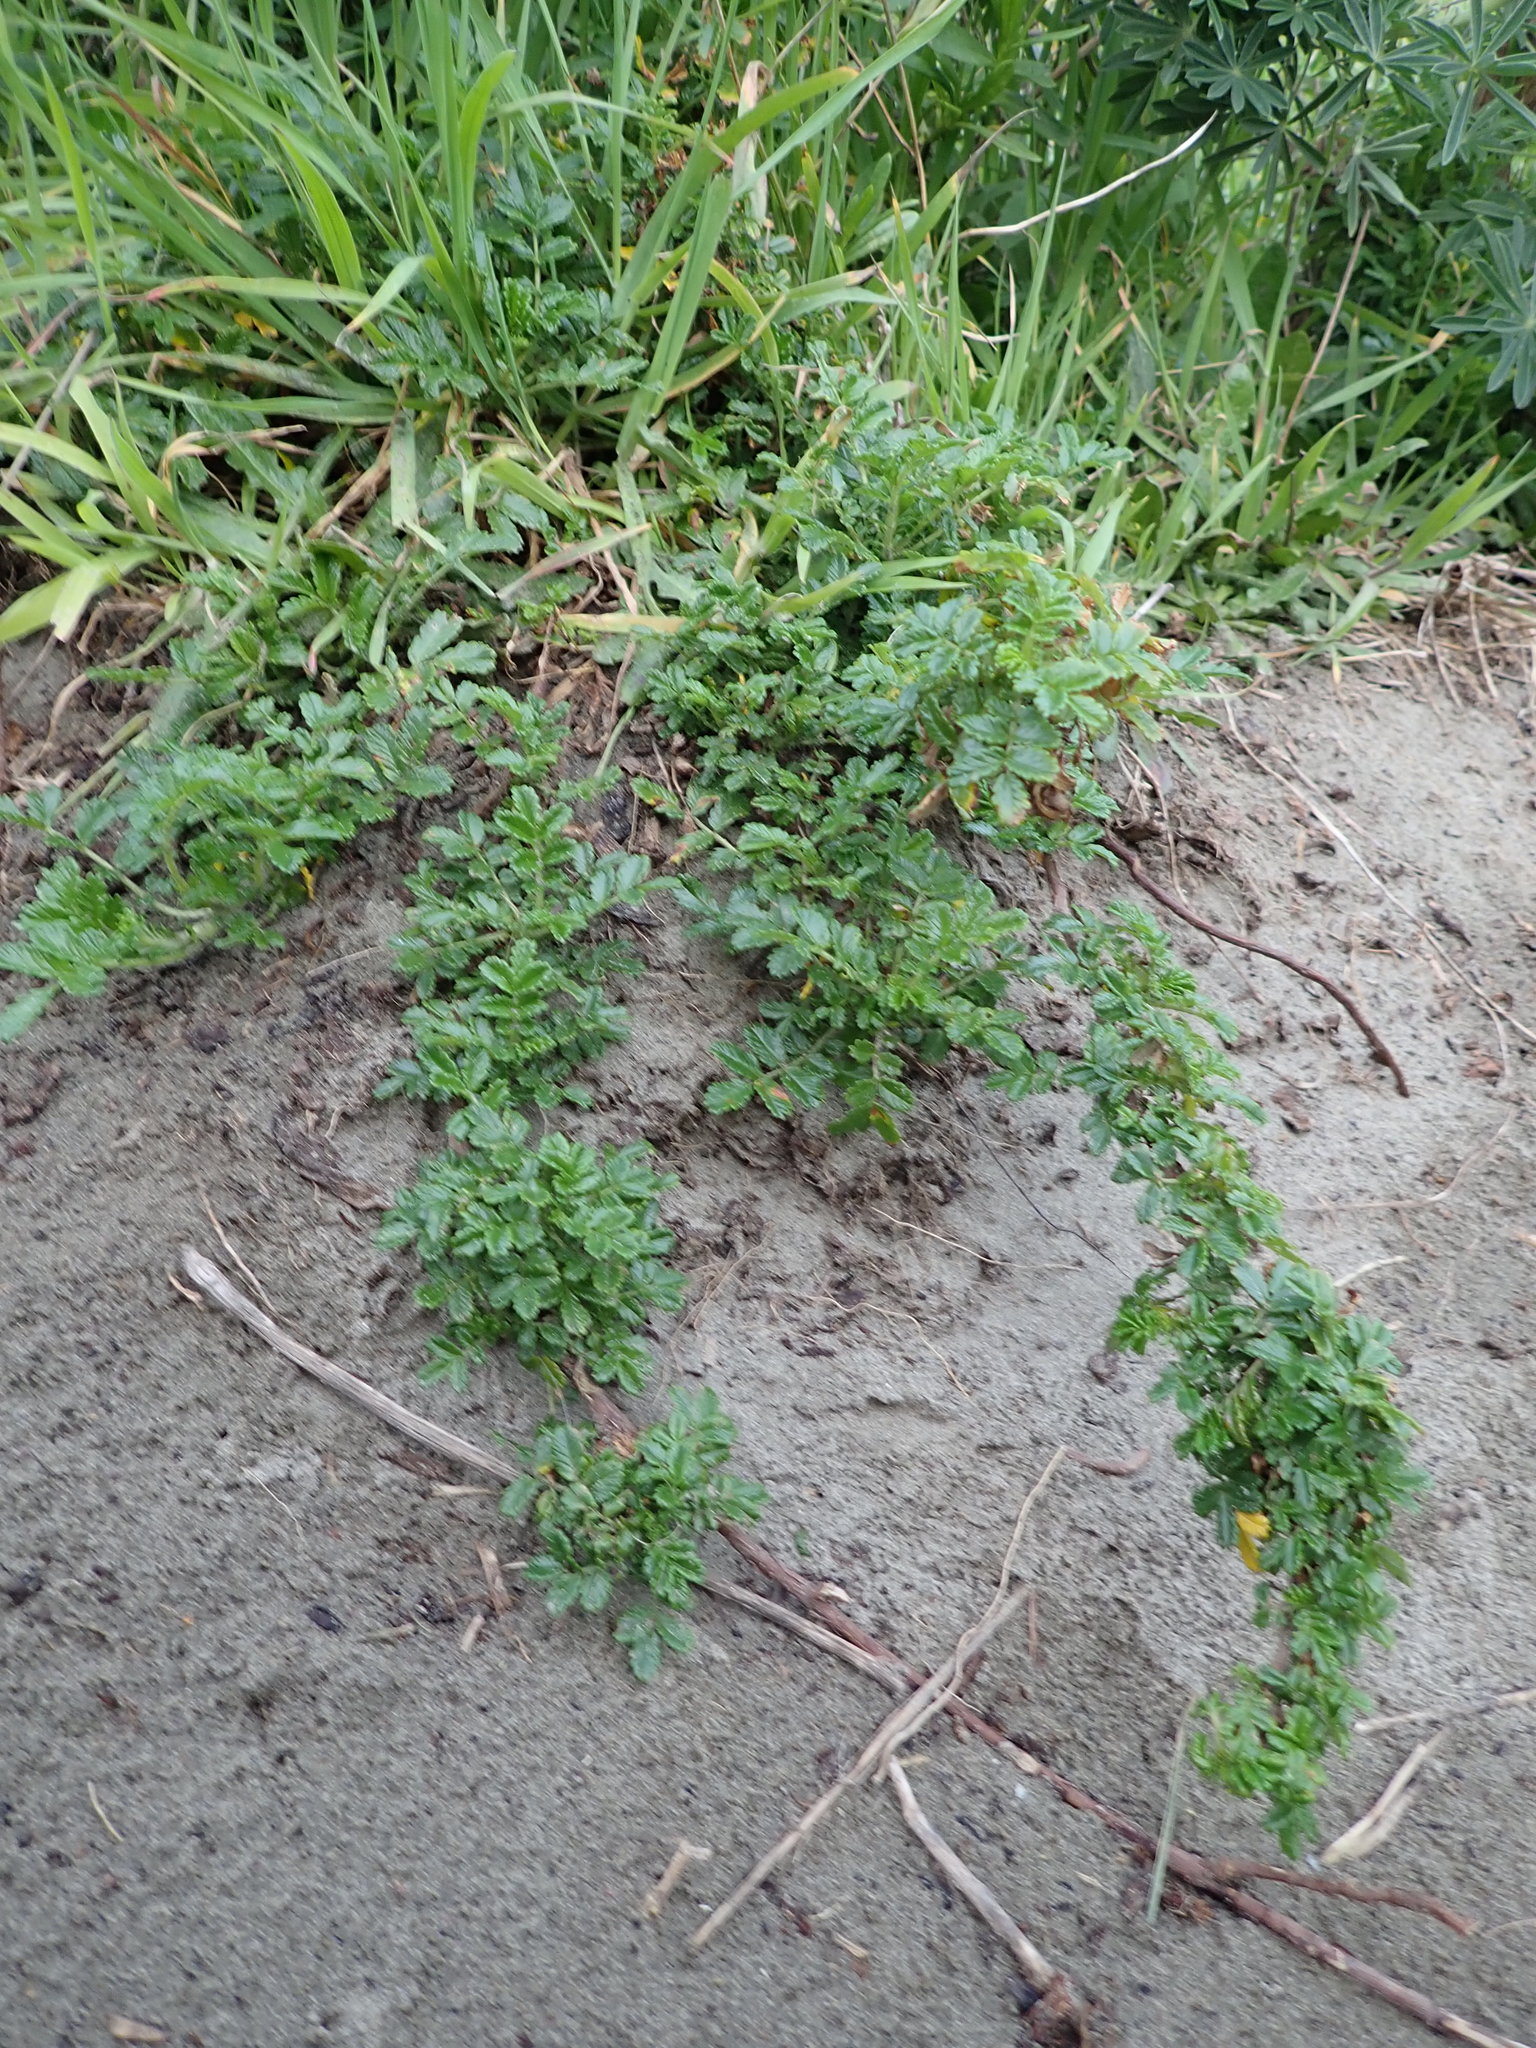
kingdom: Plantae
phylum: Tracheophyta
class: Magnoliopsida
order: Rosales
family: Rosaceae
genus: Acaena
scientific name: Acaena novae-zelandiae
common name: Pirri-pirri-bur
